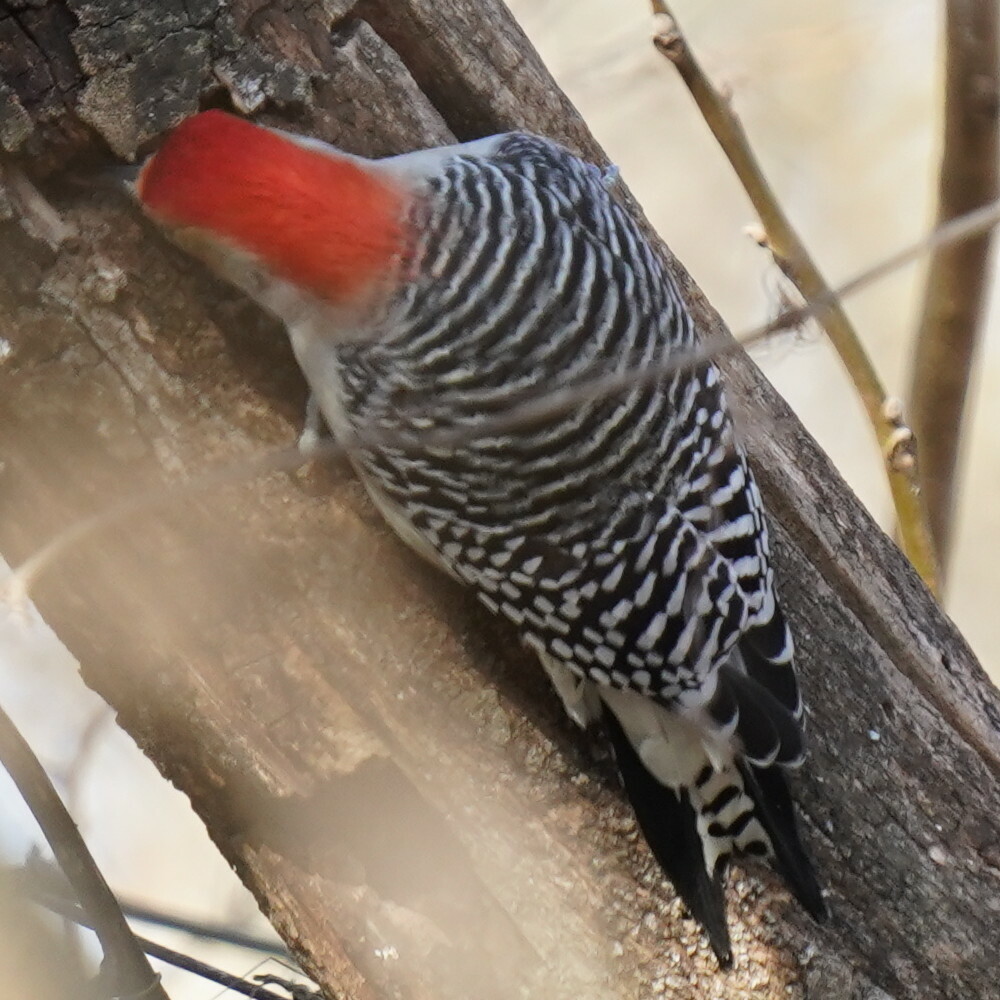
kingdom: Animalia
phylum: Chordata
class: Aves
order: Piciformes
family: Picidae
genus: Melanerpes
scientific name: Melanerpes carolinus
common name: Red-bellied woodpecker
